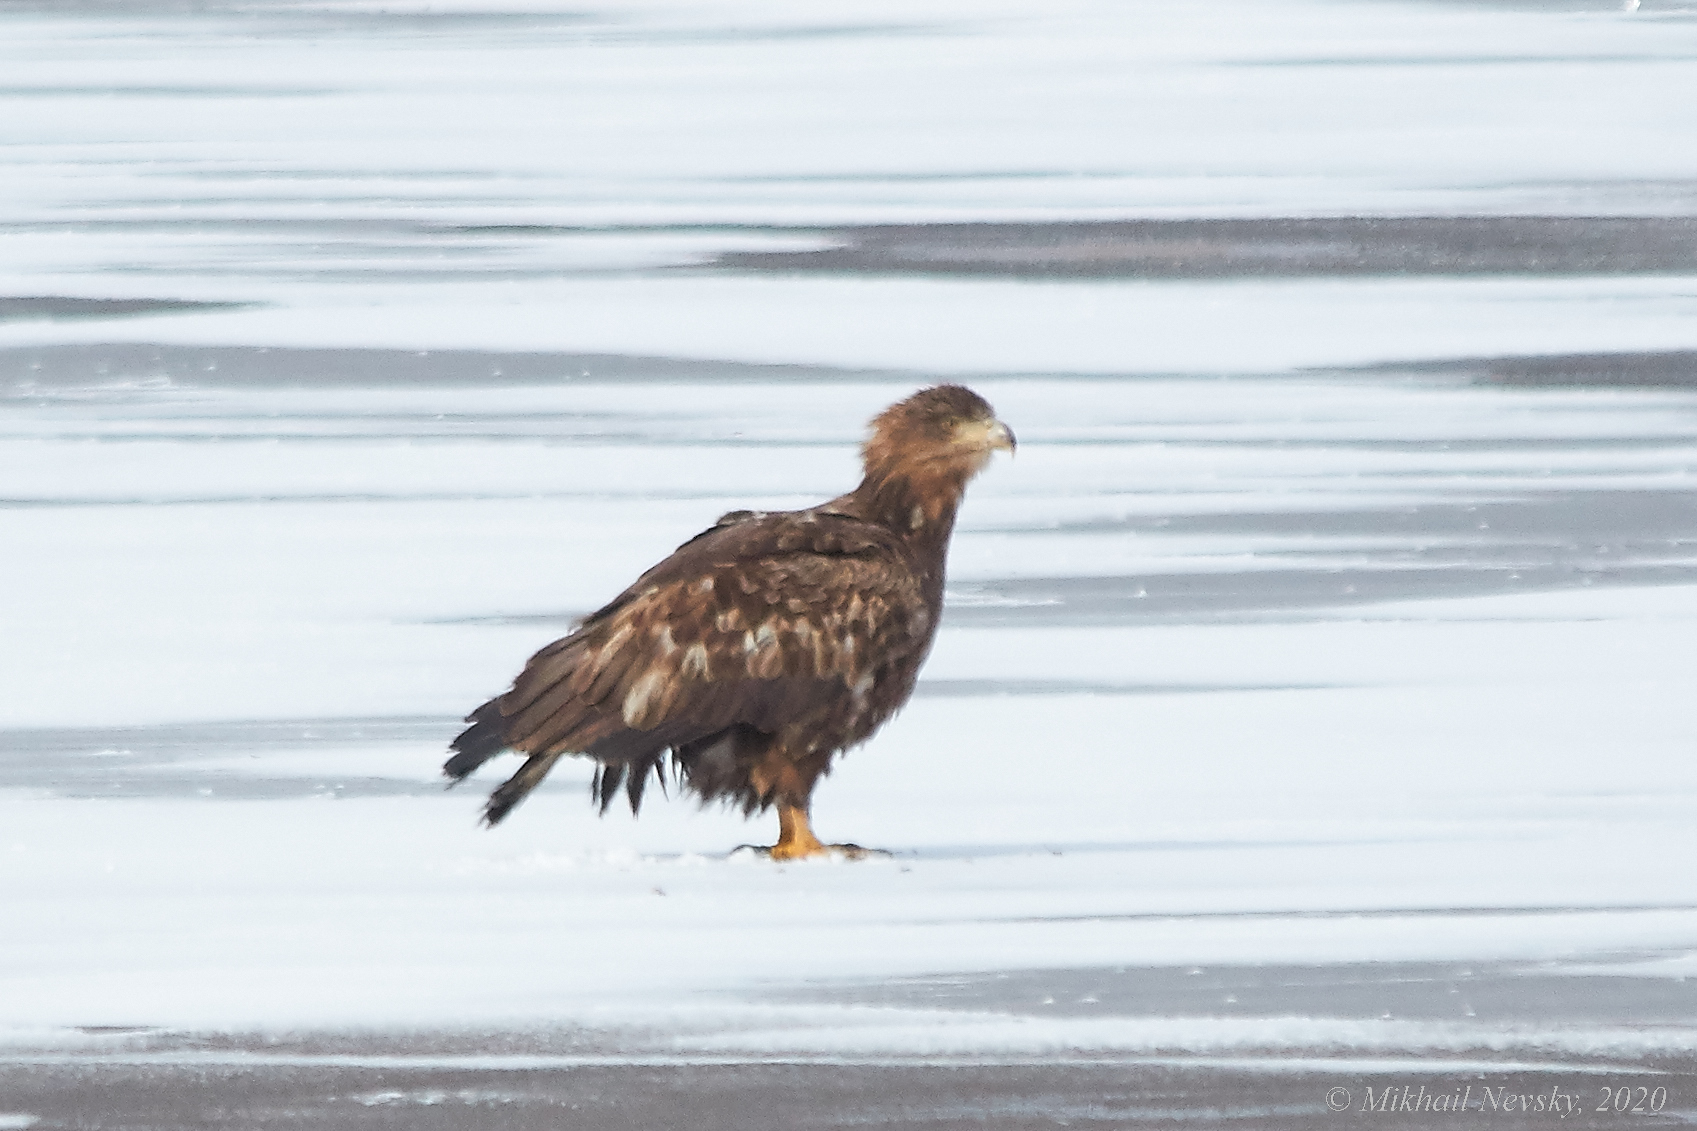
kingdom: Animalia
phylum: Chordata
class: Aves
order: Accipitriformes
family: Accipitridae
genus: Haliaeetus
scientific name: Haliaeetus albicilla
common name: White-tailed eagle
